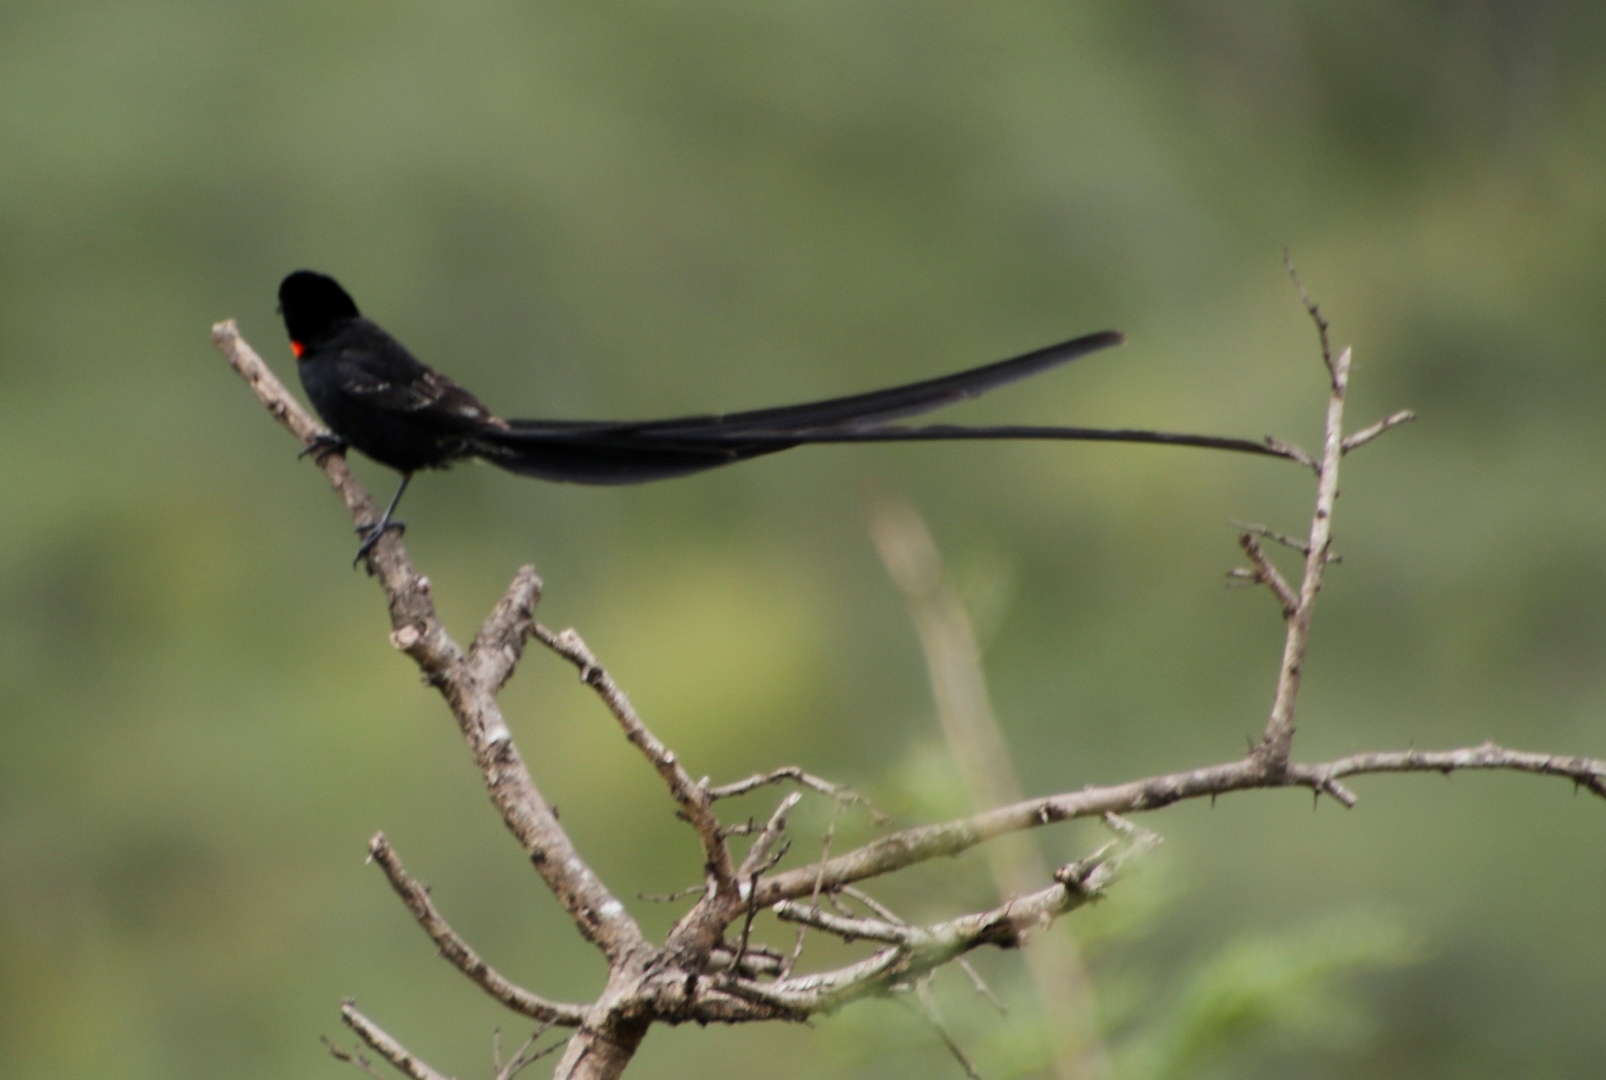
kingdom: Animalia
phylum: Chordata
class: Aves
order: Passeriformes
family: Ploceidae
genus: Euplectes
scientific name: Euplectes ardens
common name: Red-collared widowbird
